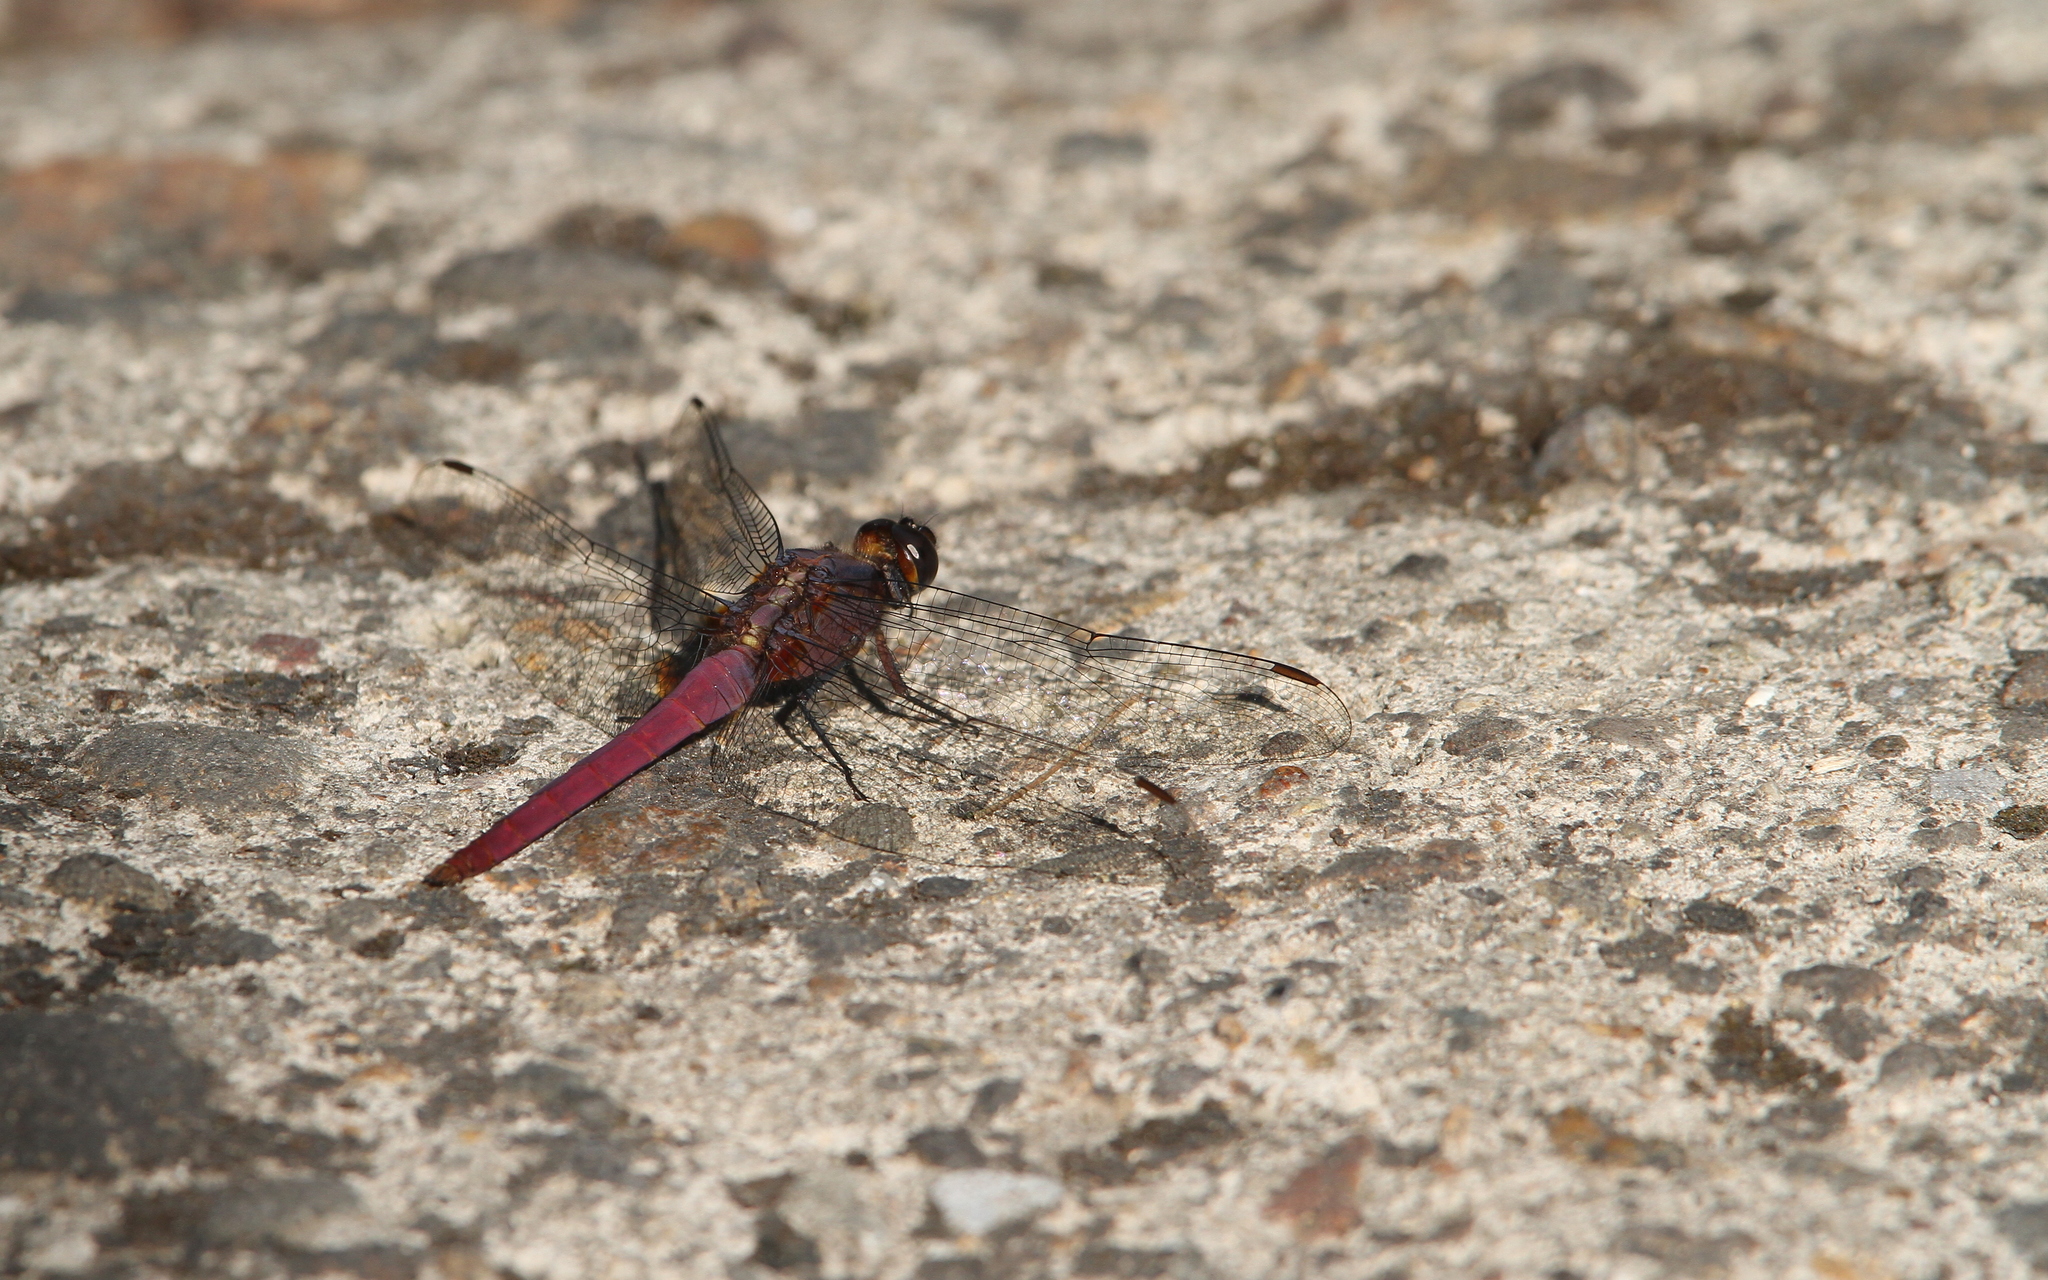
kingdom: Animalia
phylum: Arthropoda
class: Insecta
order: Odonata
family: Libellulidae
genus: Orthetrum
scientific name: Orthetrum pruinosum
